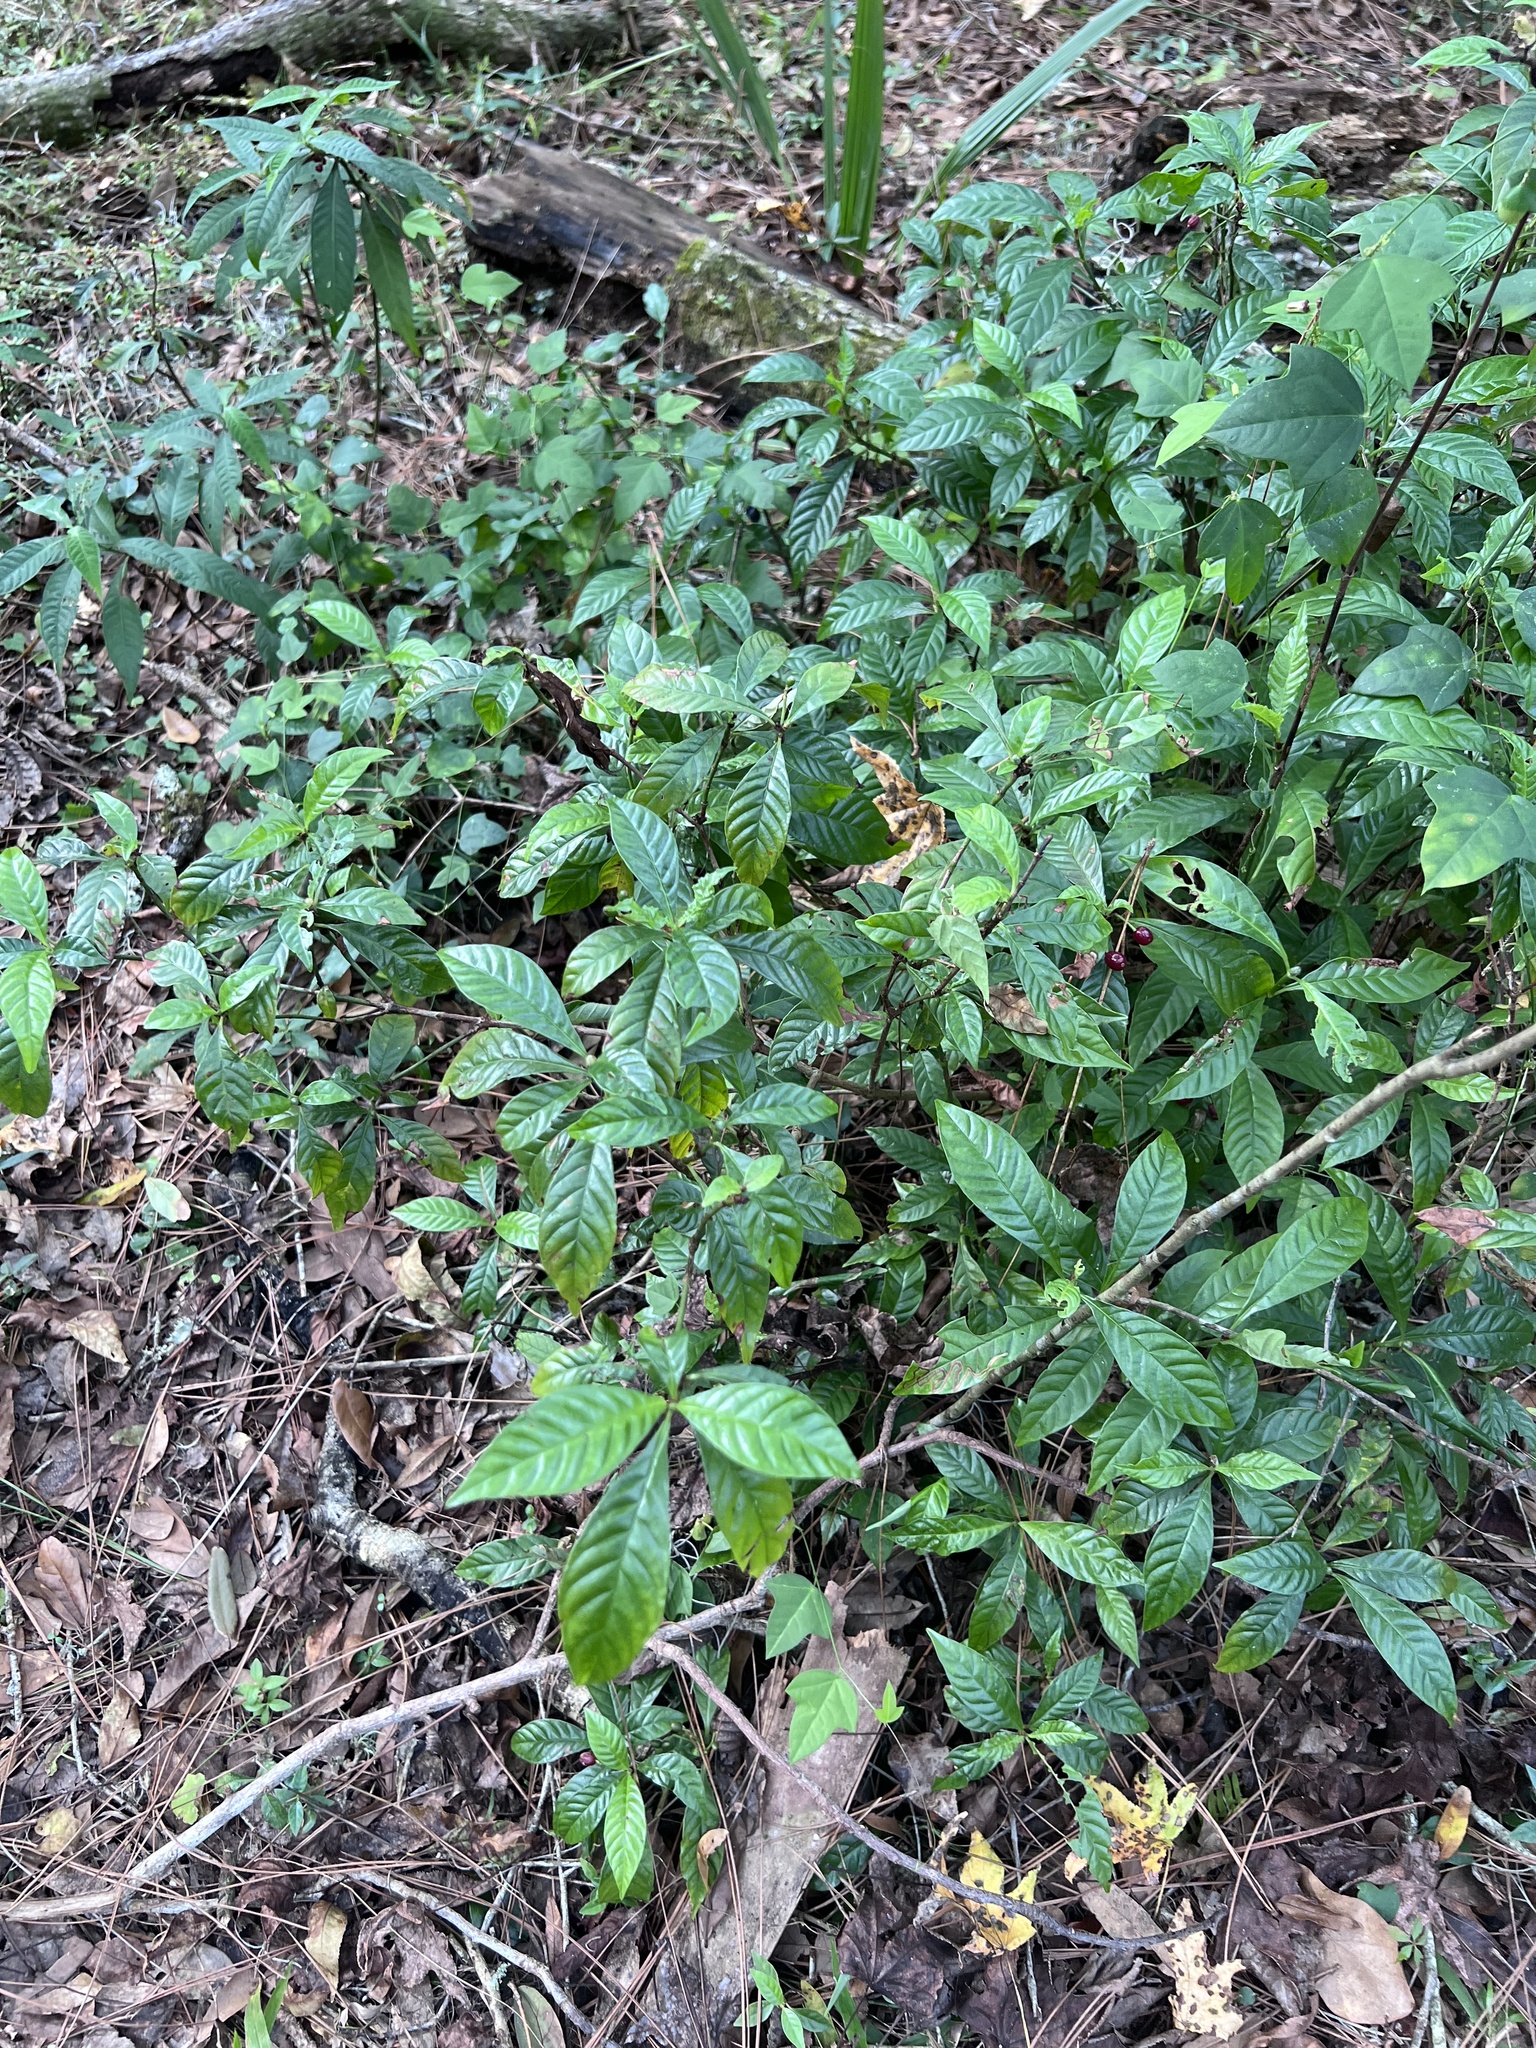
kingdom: Plantae
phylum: Tracheophyta
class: Magnoliopsida
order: Gentianales
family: Rubiaceae
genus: Psychotria
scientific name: Psychotria nervosa
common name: Bastard cankerberry
